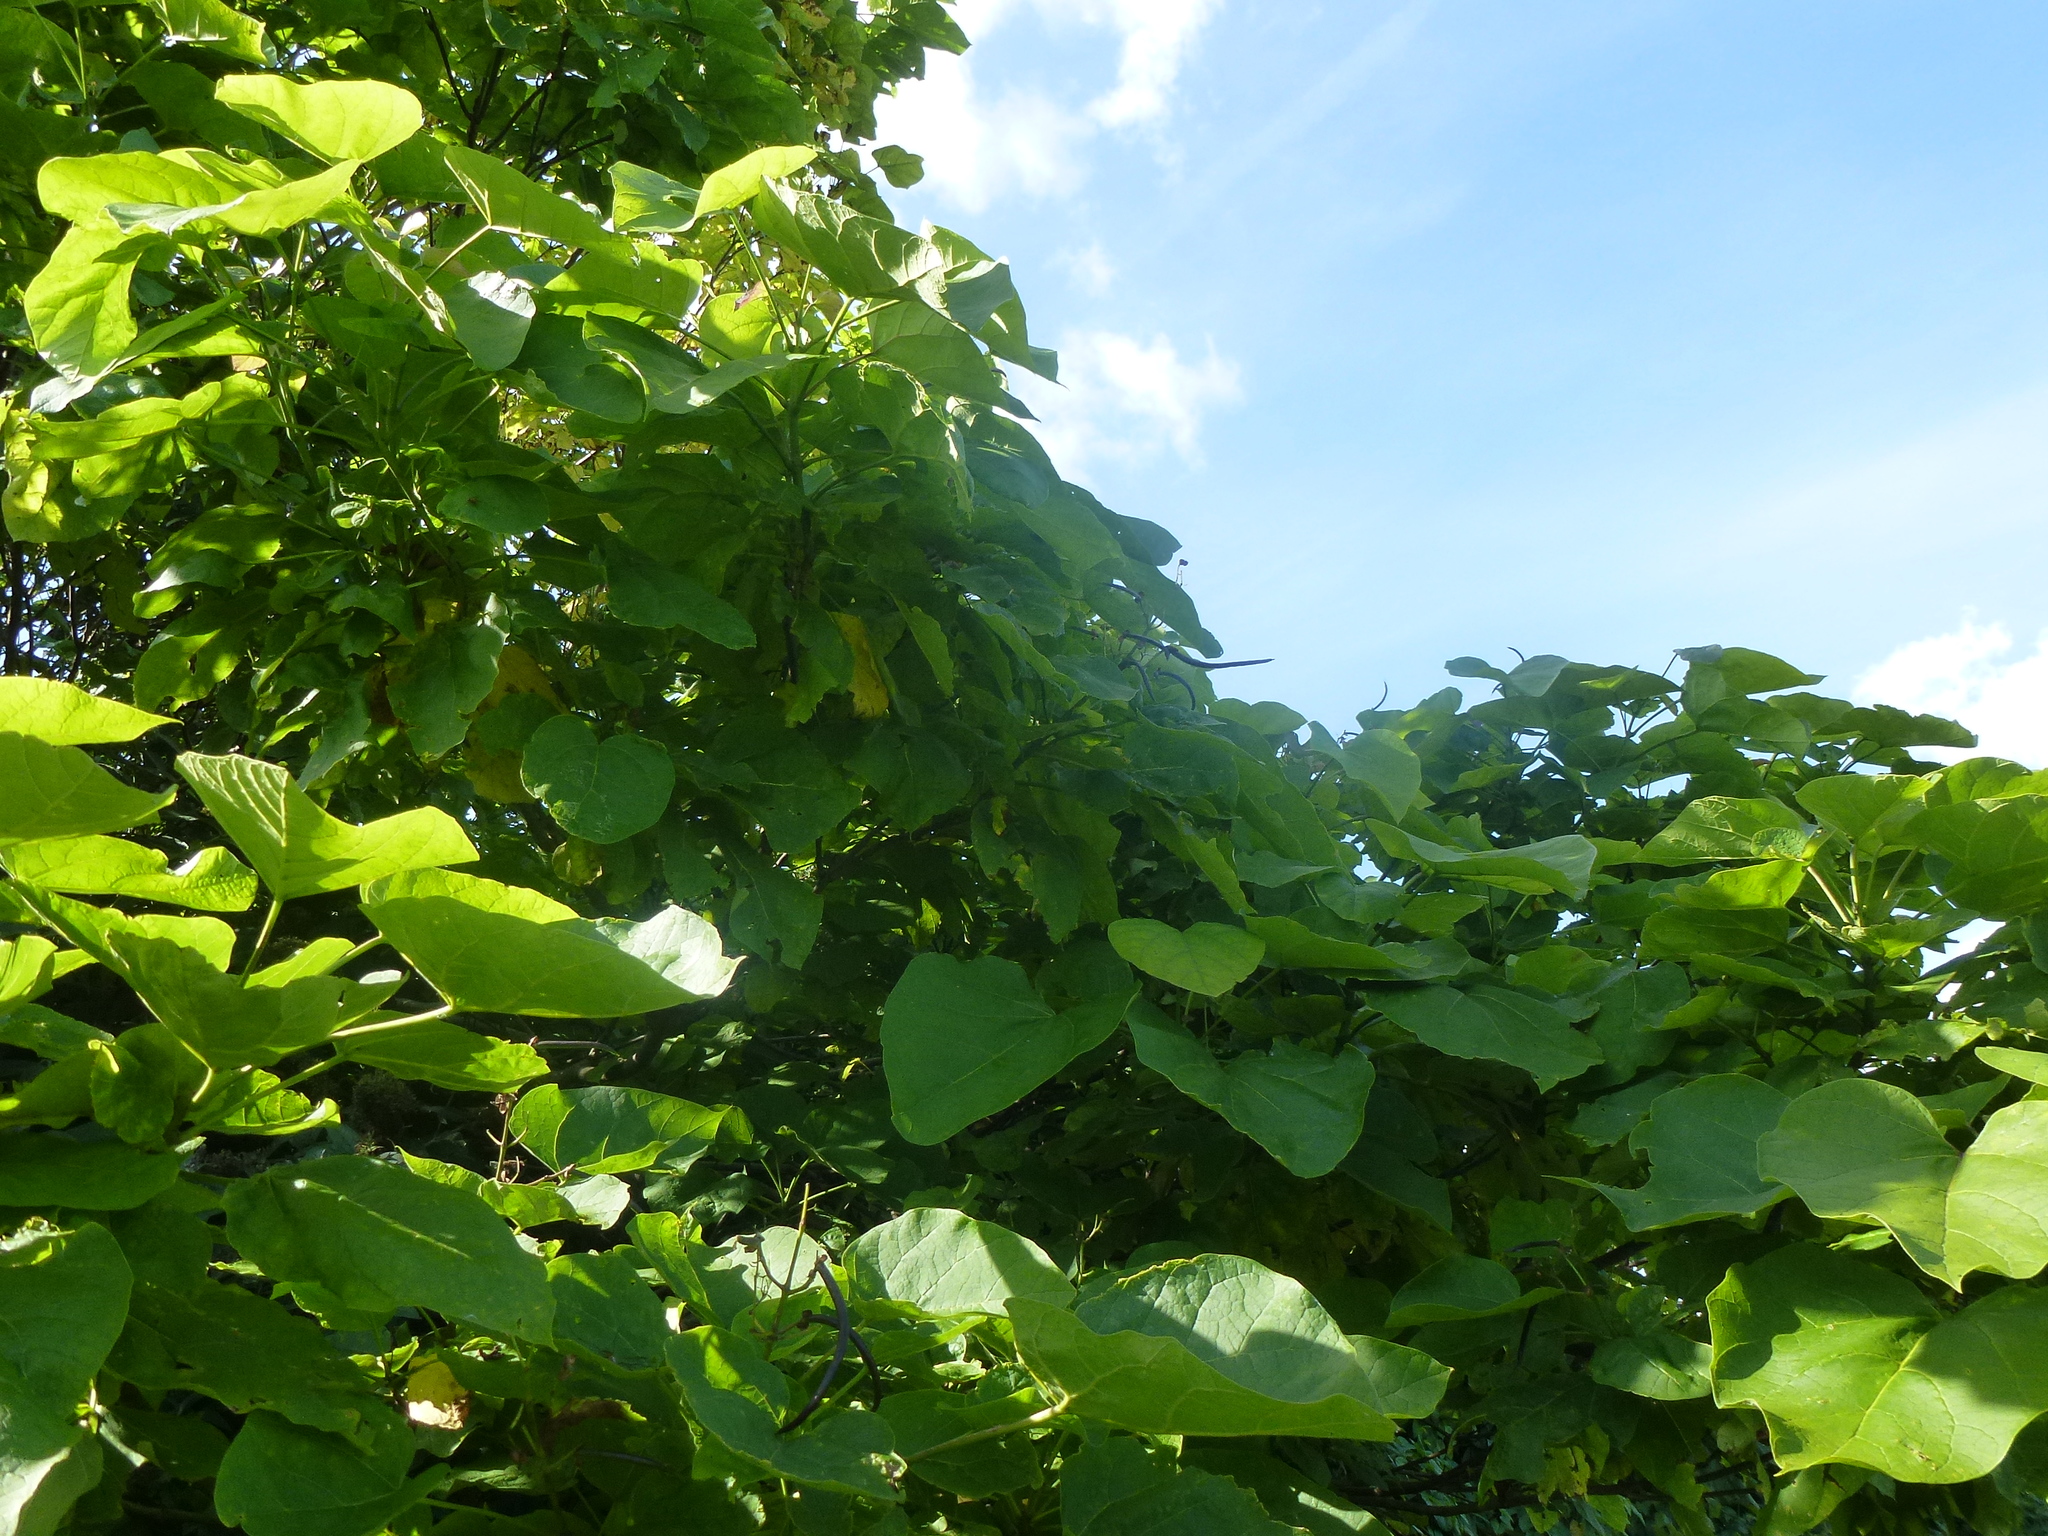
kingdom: Plantae
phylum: Tracheophyta
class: Magnoliopsida
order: Lamiales
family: Bignoniaceae
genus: Catalpa
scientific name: Catalpa bignonioides
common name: Southern catalpa
